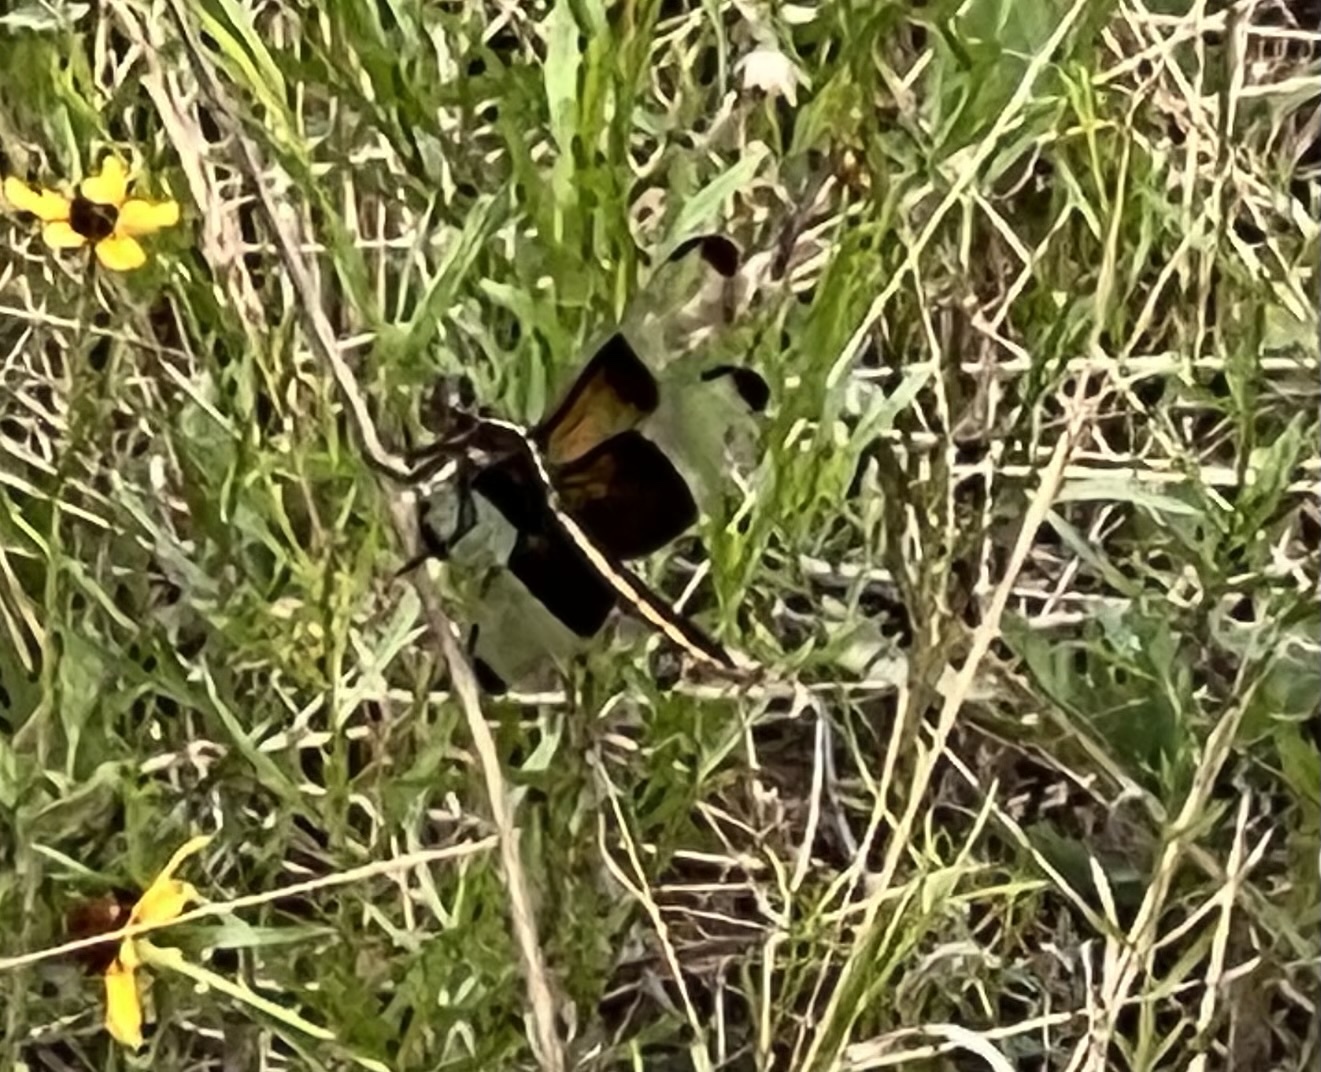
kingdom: Animalia
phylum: Arthropoda
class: Insecta
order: Odonata
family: Libellulidae
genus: Libellula
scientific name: Libellula luctuosa
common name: Widow skimmer
